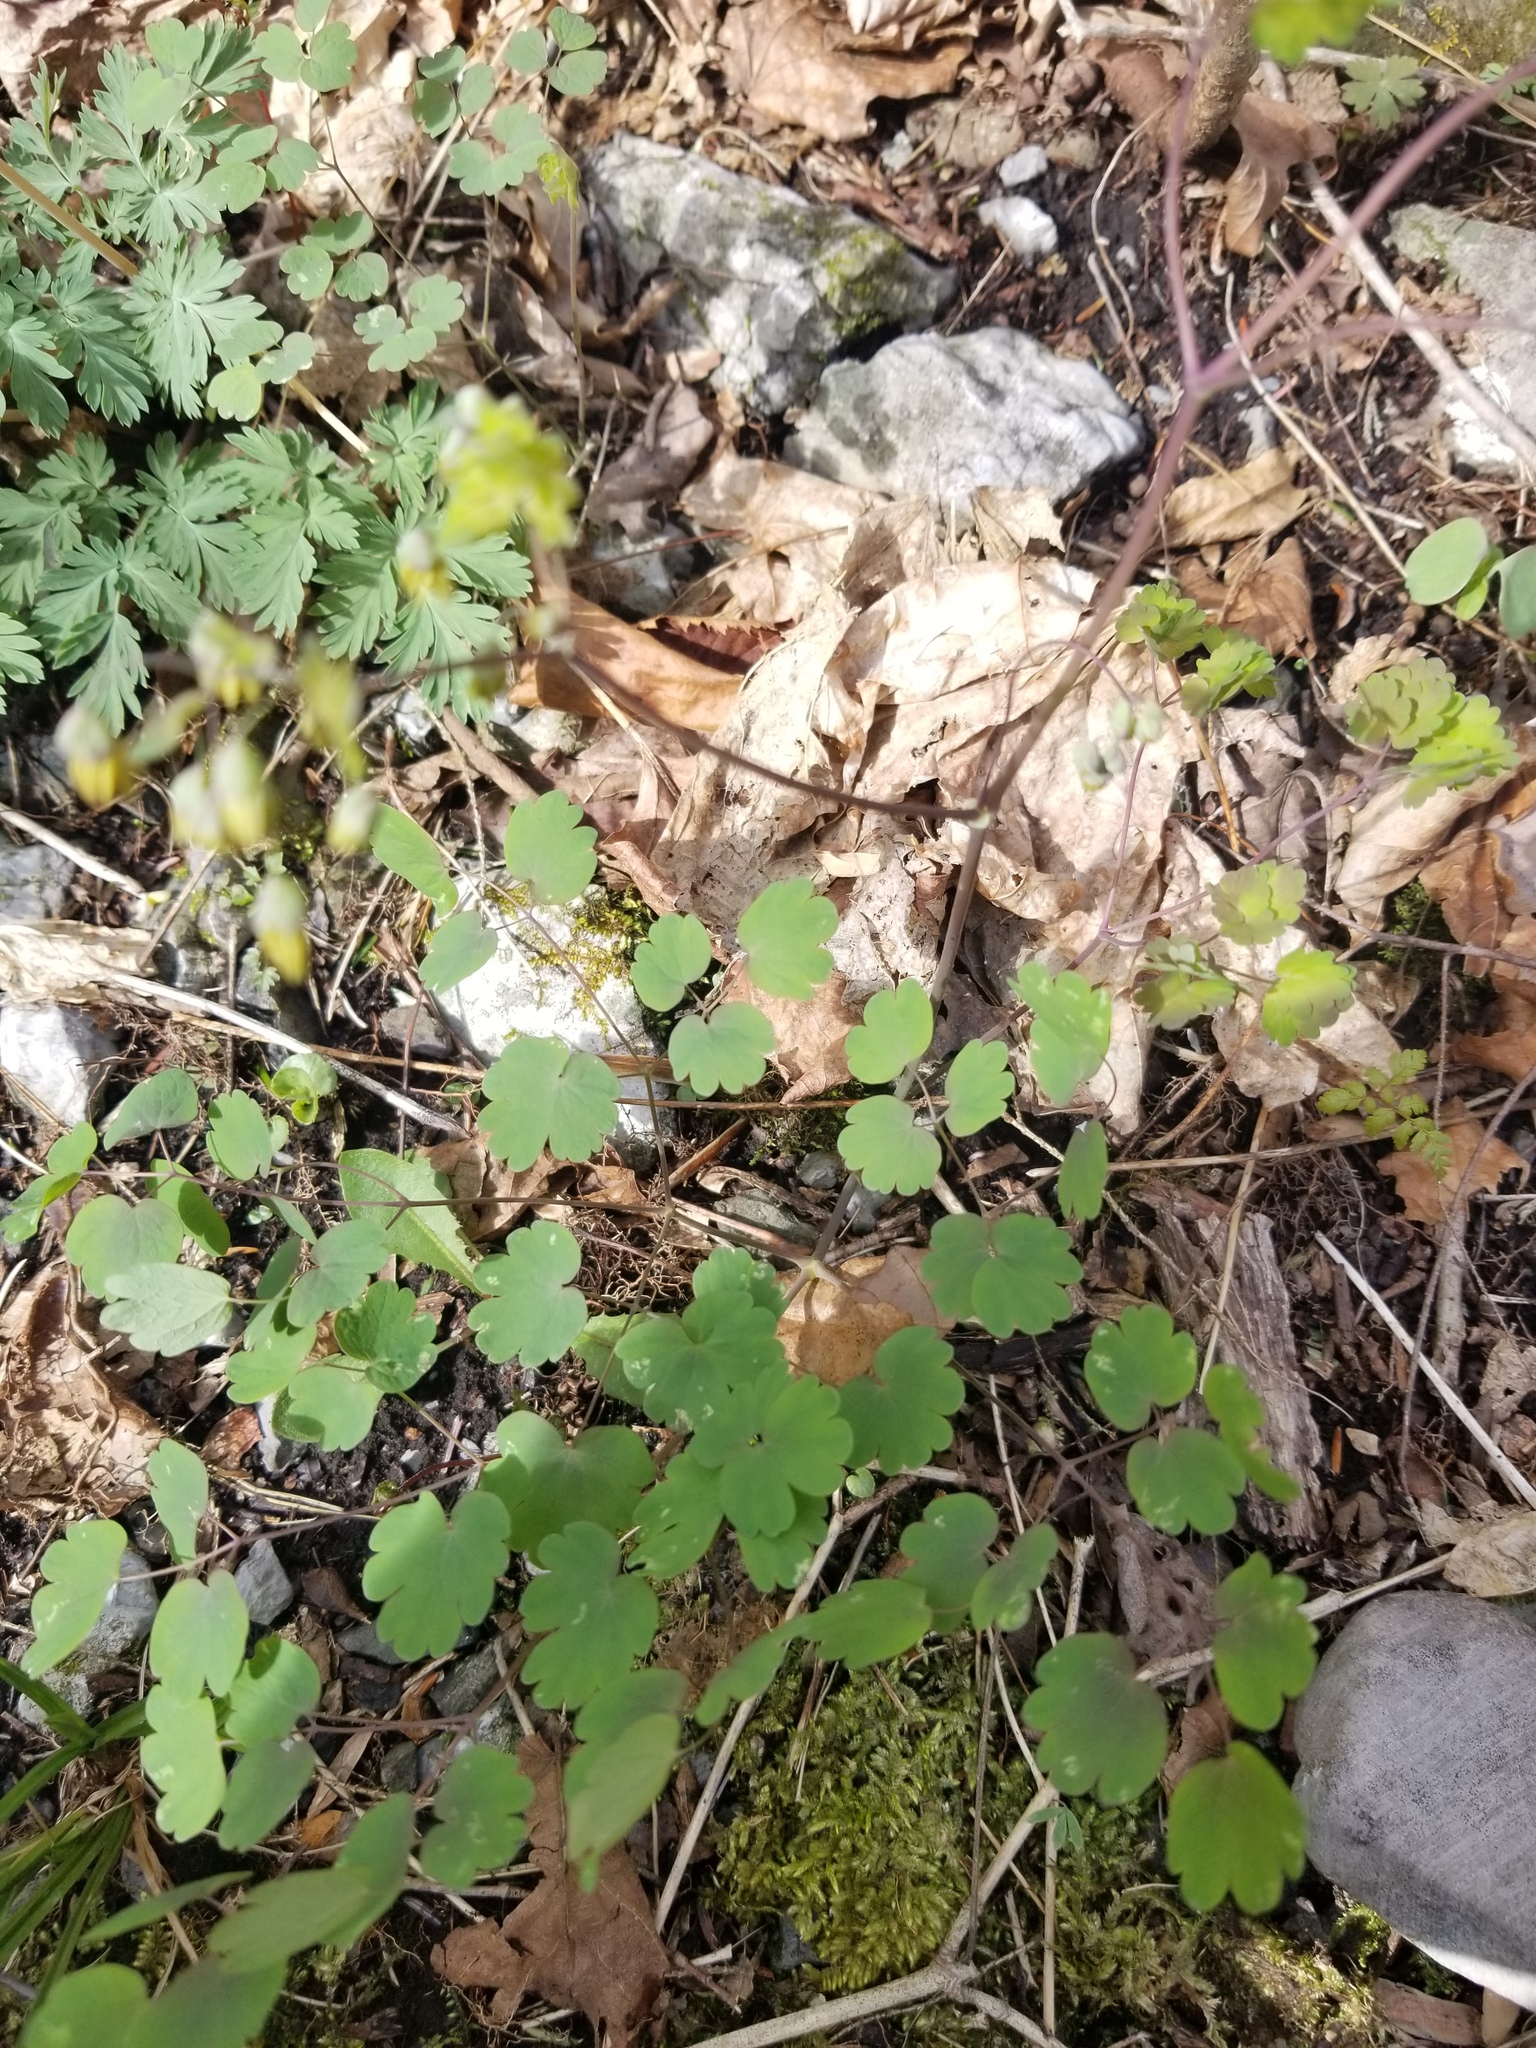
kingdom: Plantae
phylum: Tracheophyta
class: Magnoliopsida
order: Ranunculales
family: Ranunculaceae
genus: Thalictrum
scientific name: Thalictrum dioicum
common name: Early meadow-rue
